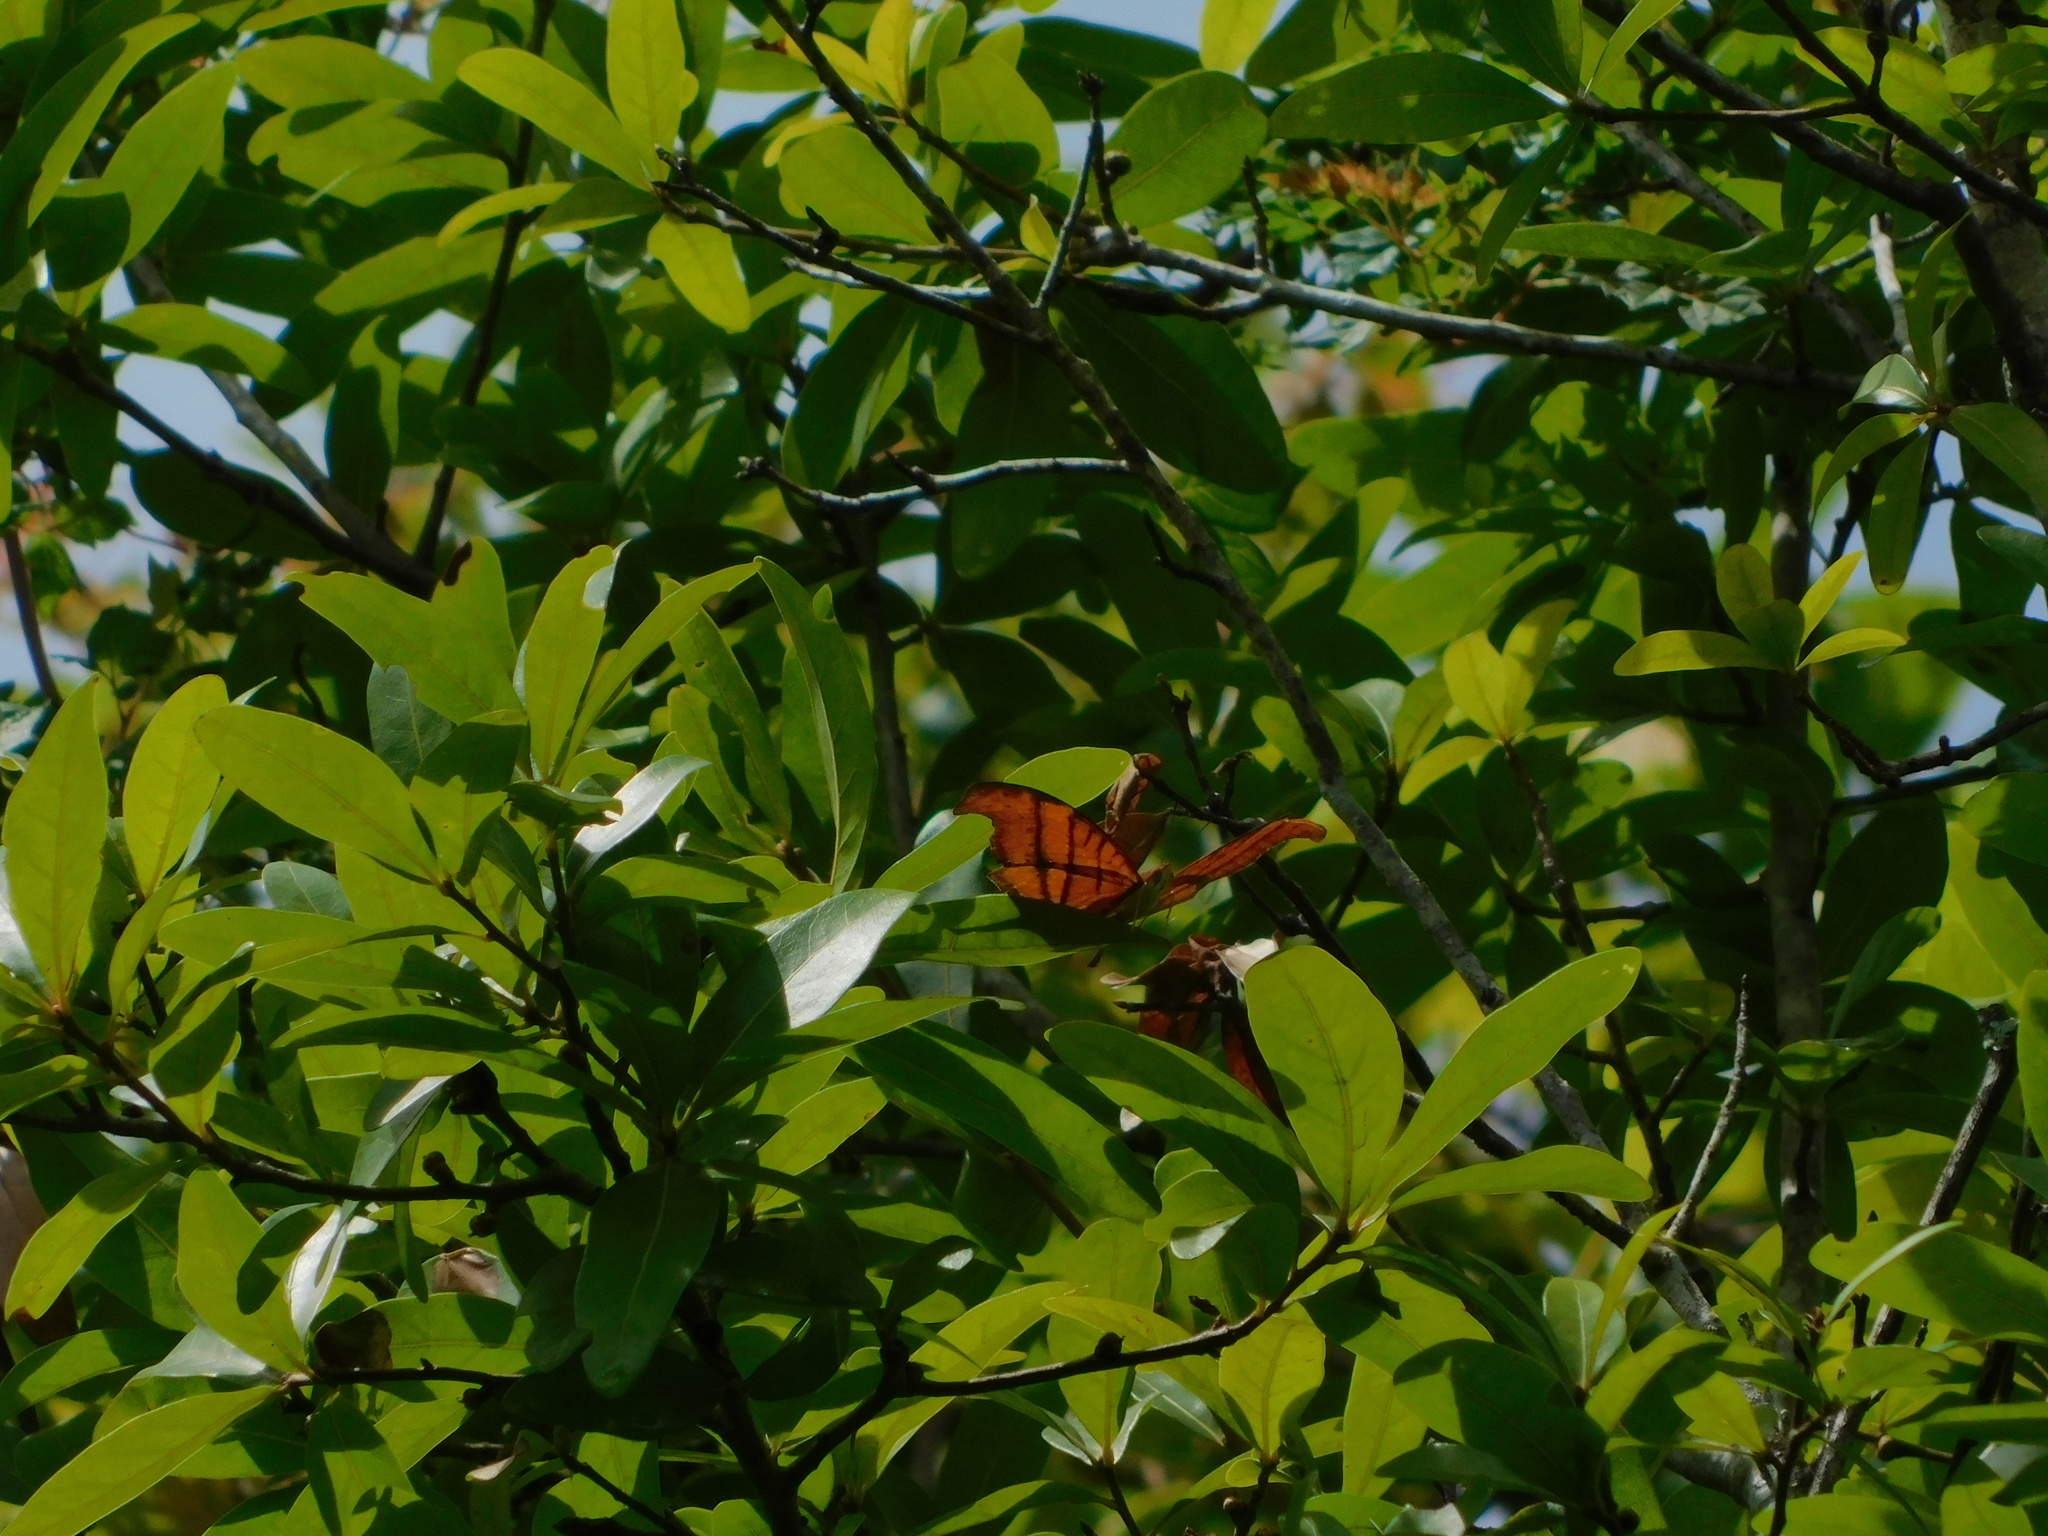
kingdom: Animalia
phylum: Arthropoda
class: Insecta
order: Lepidoptera
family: Nymphalidae
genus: Marpesia
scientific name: Marpesia petreus
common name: Red dagger wing
